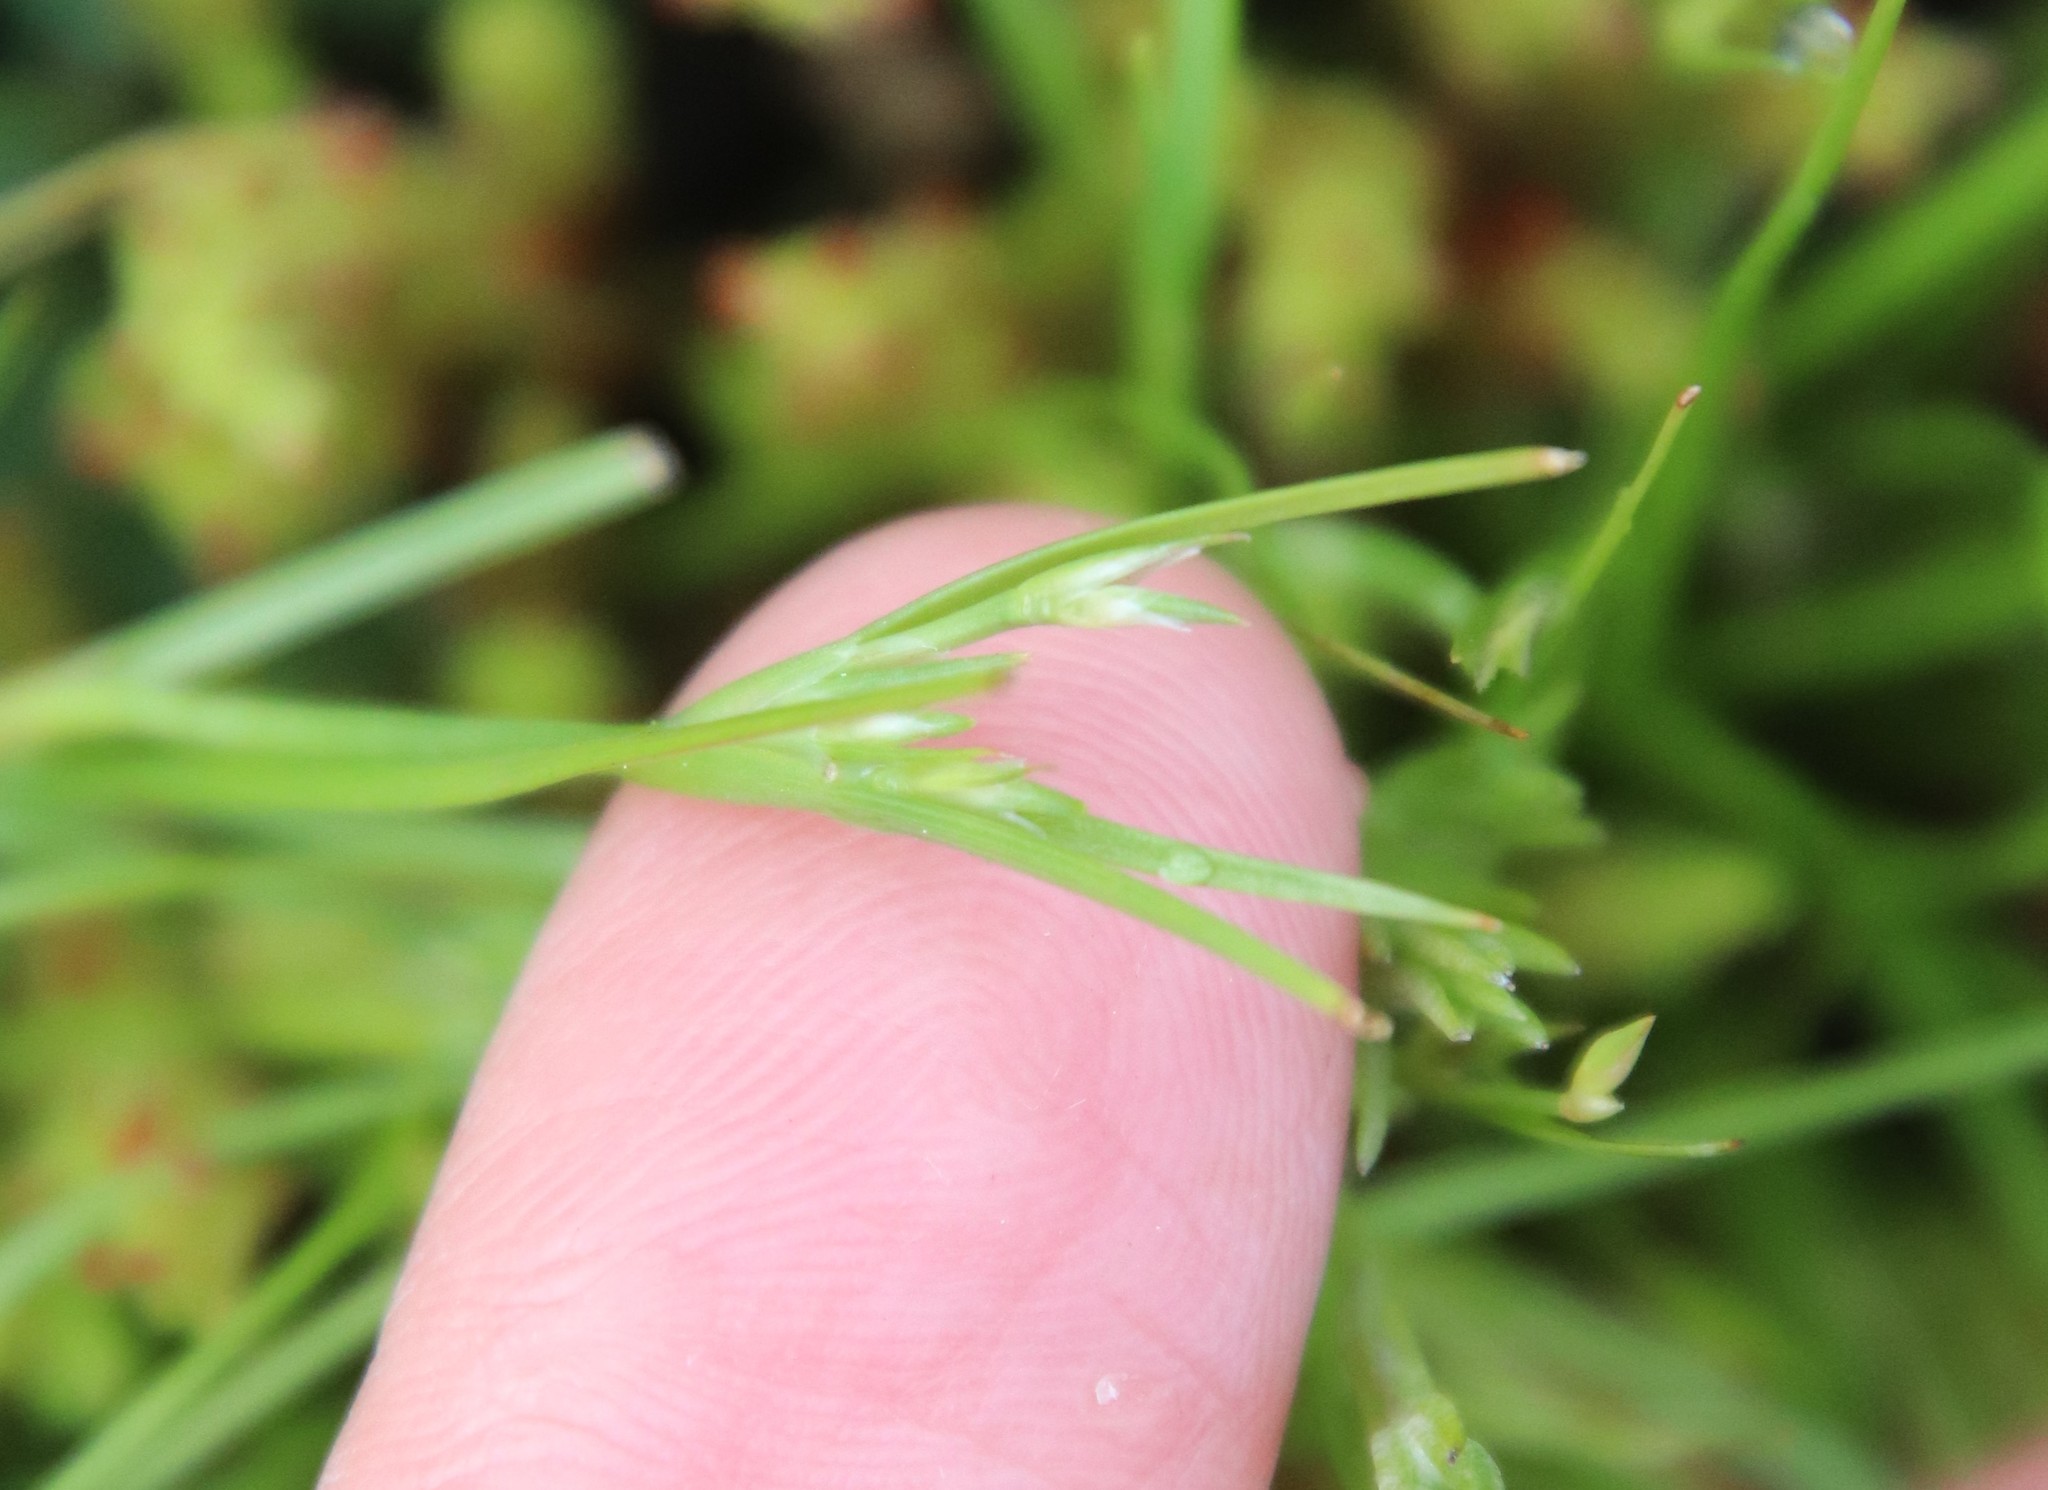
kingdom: Plantae
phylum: Tracheophyta
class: Liliopsida
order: Poales
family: Juncaceae
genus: Juncus
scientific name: Juncus bufonius
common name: Toad rush
